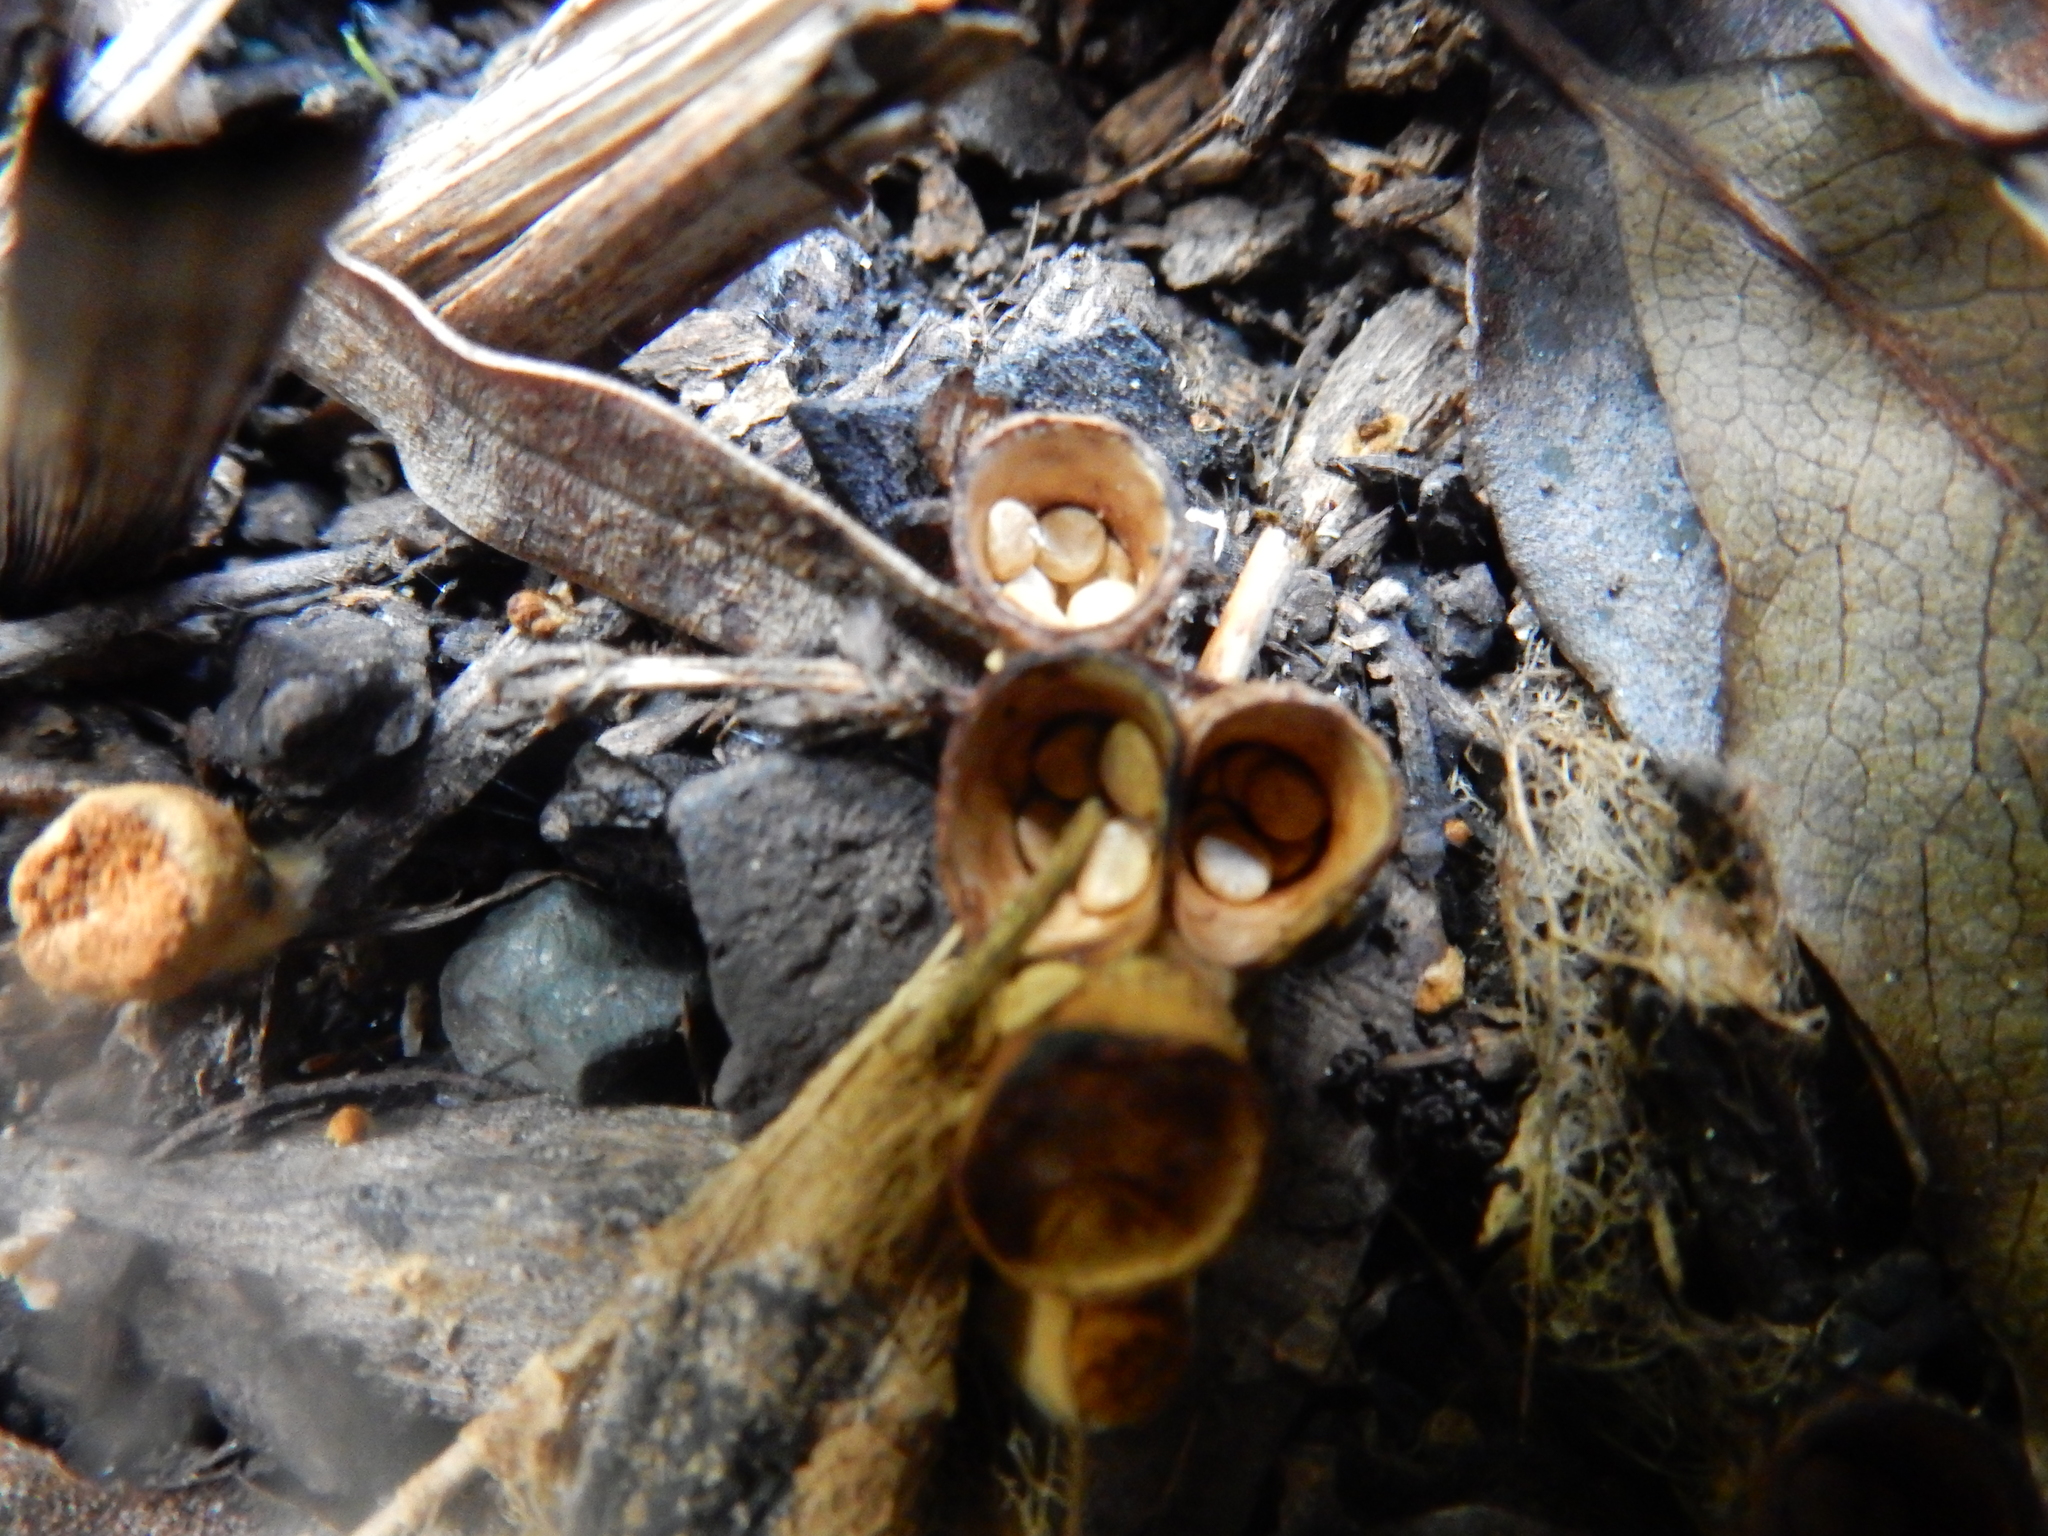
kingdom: Fungi
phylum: Basidiomycota
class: Agaricomycetes
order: Agaricales
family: Nidulariaceae
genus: Crucibulum
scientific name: Crucibulum simile
